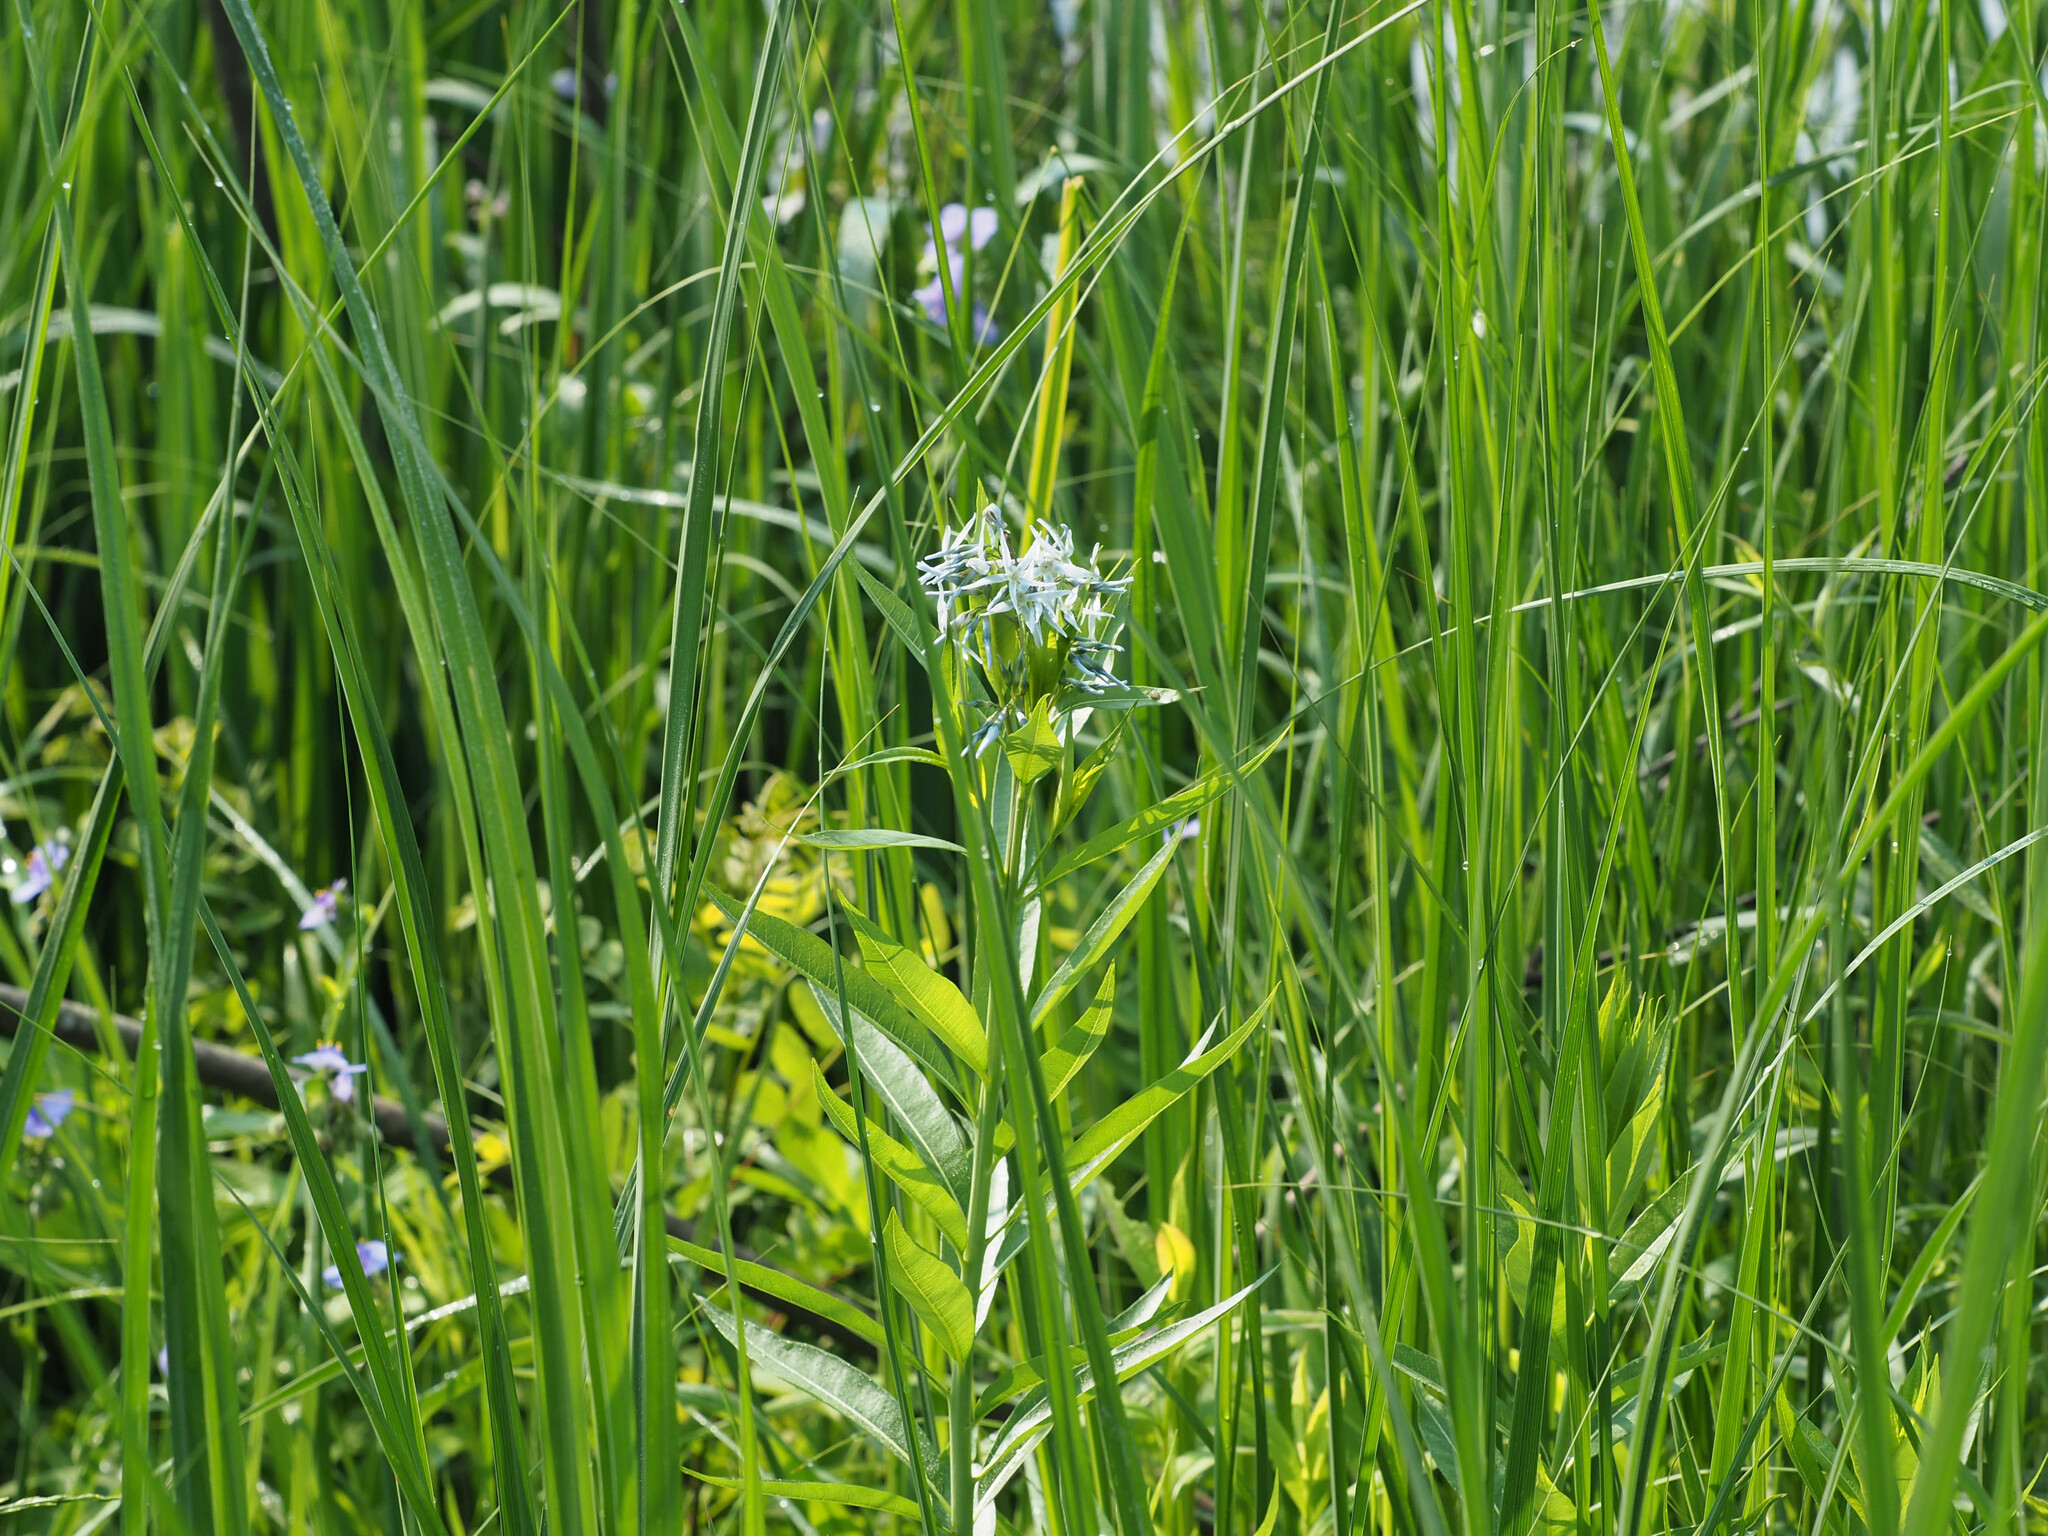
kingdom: Plantae
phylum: Tracheophyta
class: Magnoliopsida
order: Gentianales
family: Apocynaceae
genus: Amsonia
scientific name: Amsonia tabernaemontana
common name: Texas-star
